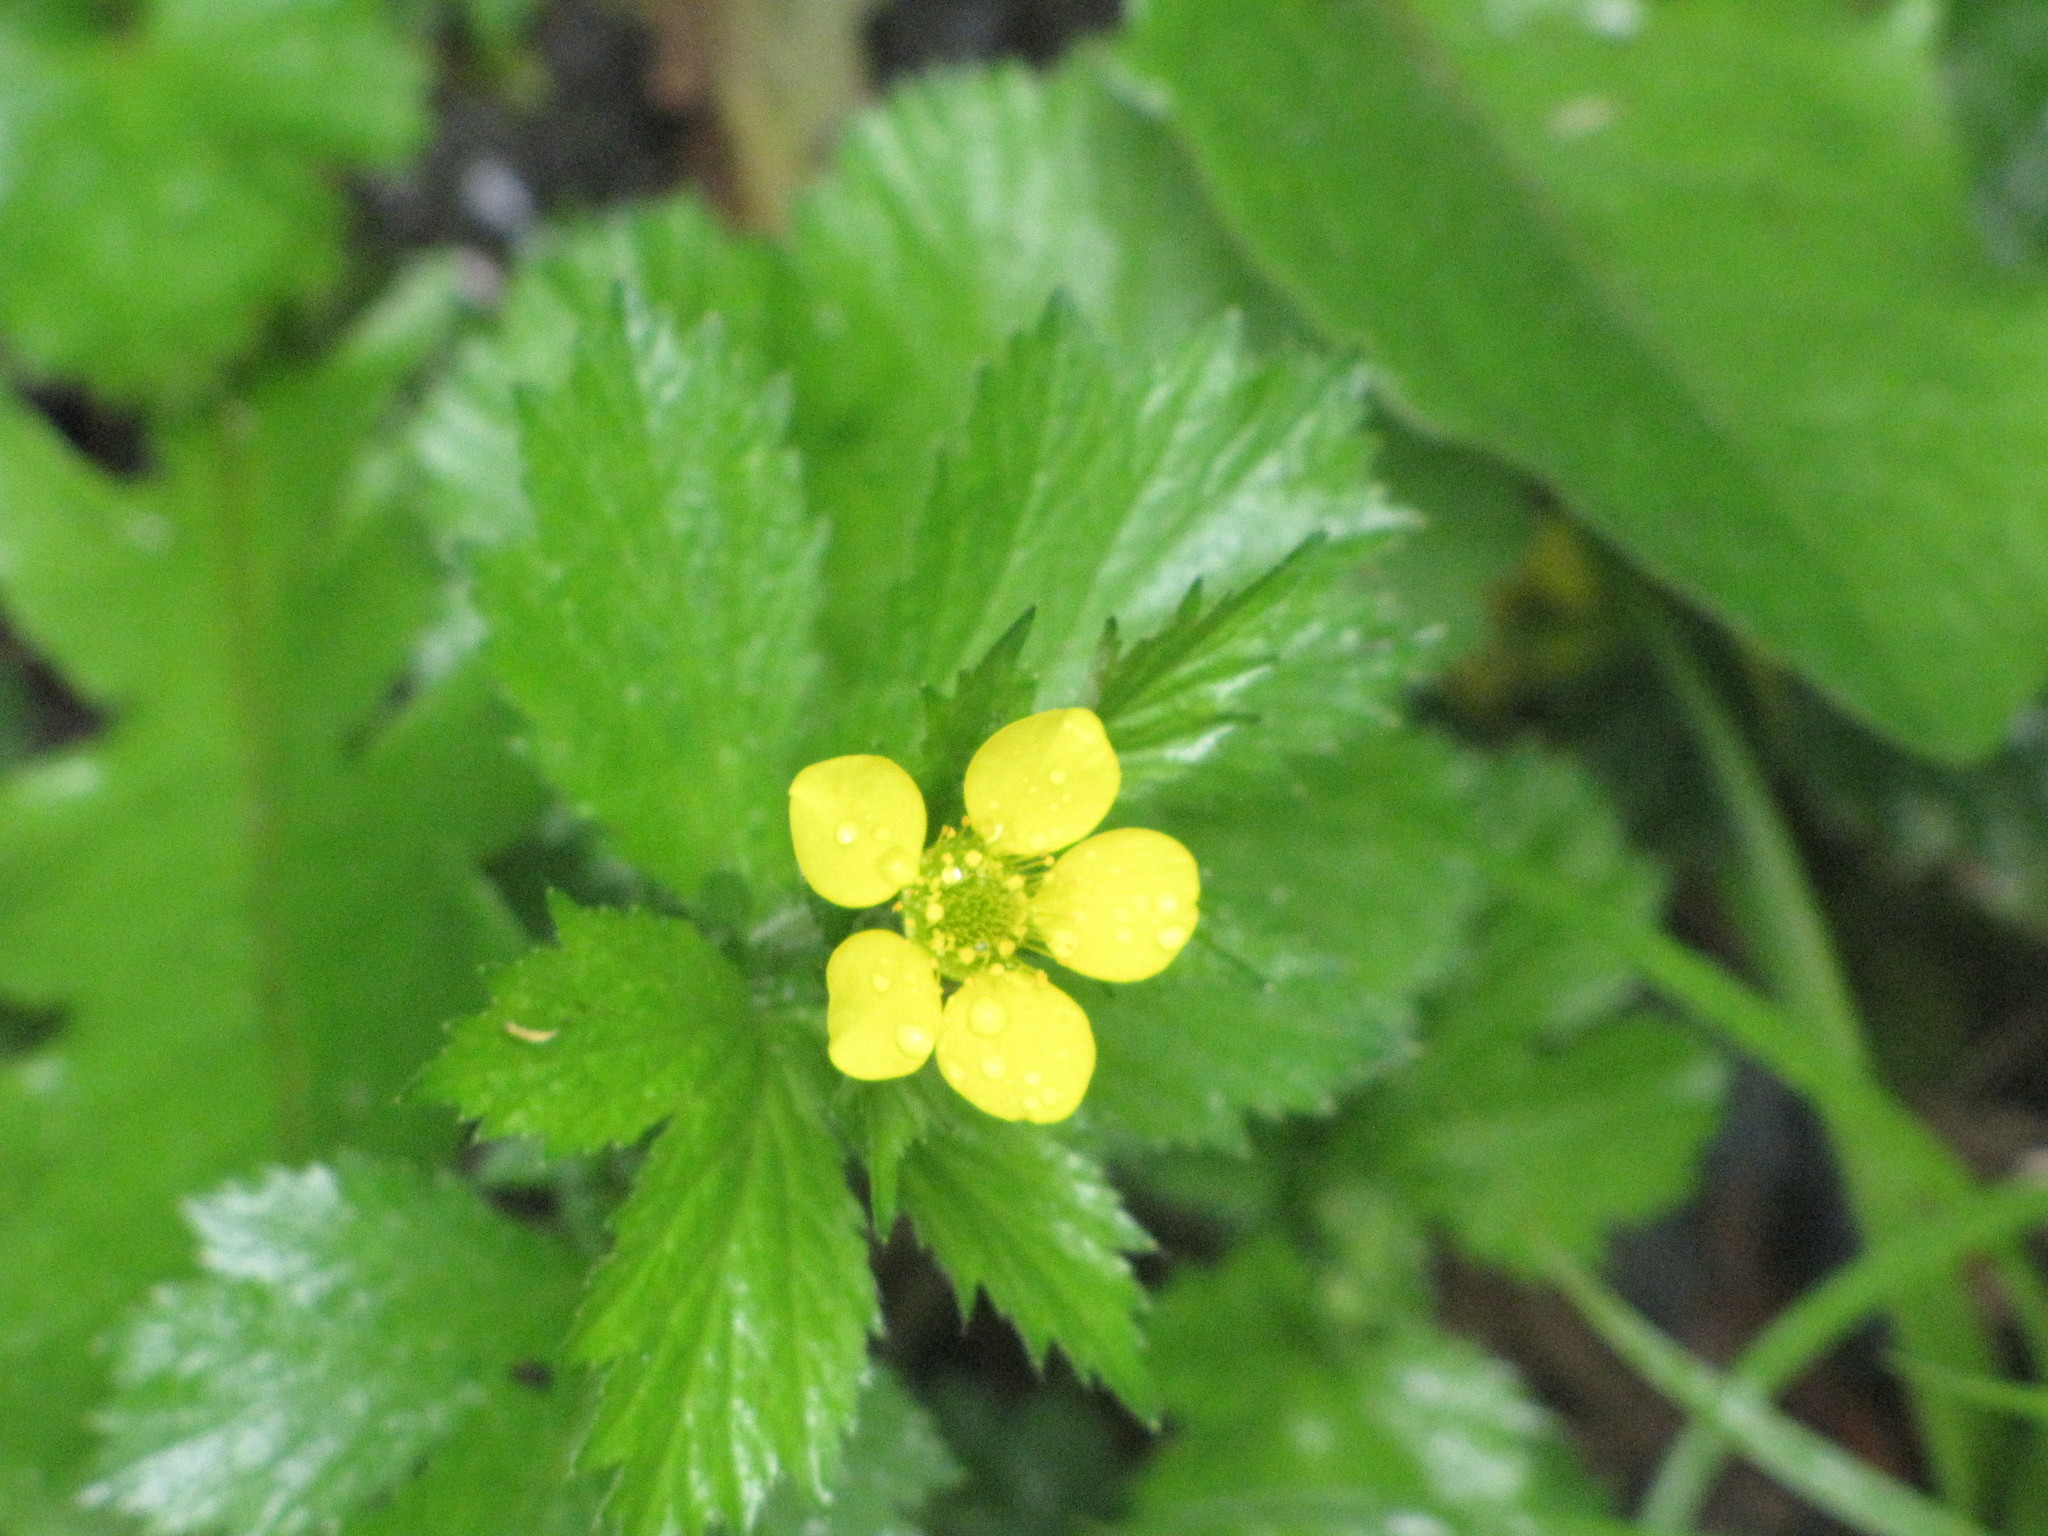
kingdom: Plantae
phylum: Tracheophyta
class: Magnoliopsida
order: Rosales
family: Rosaceae
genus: Geum
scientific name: Geum macrophyllum
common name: Large-leaved avens
